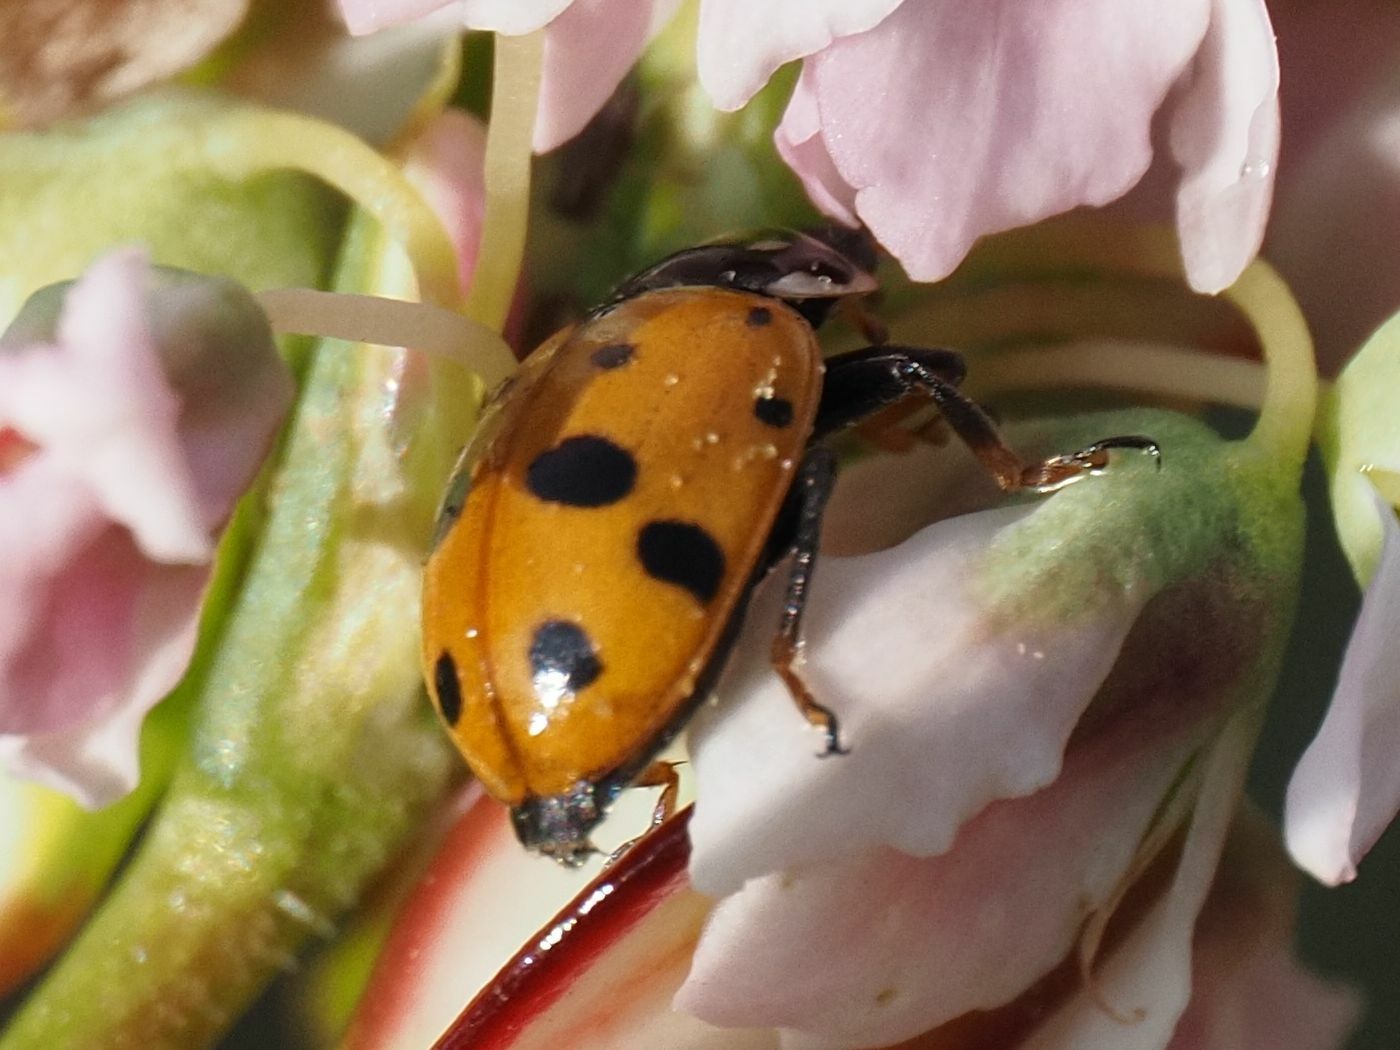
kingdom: Animalia
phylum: Arthropoda
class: Insecta
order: Coleoptera
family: Coccinellidae
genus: Hippodamia
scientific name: Hippodamia variegata
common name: Ladybird beetle
